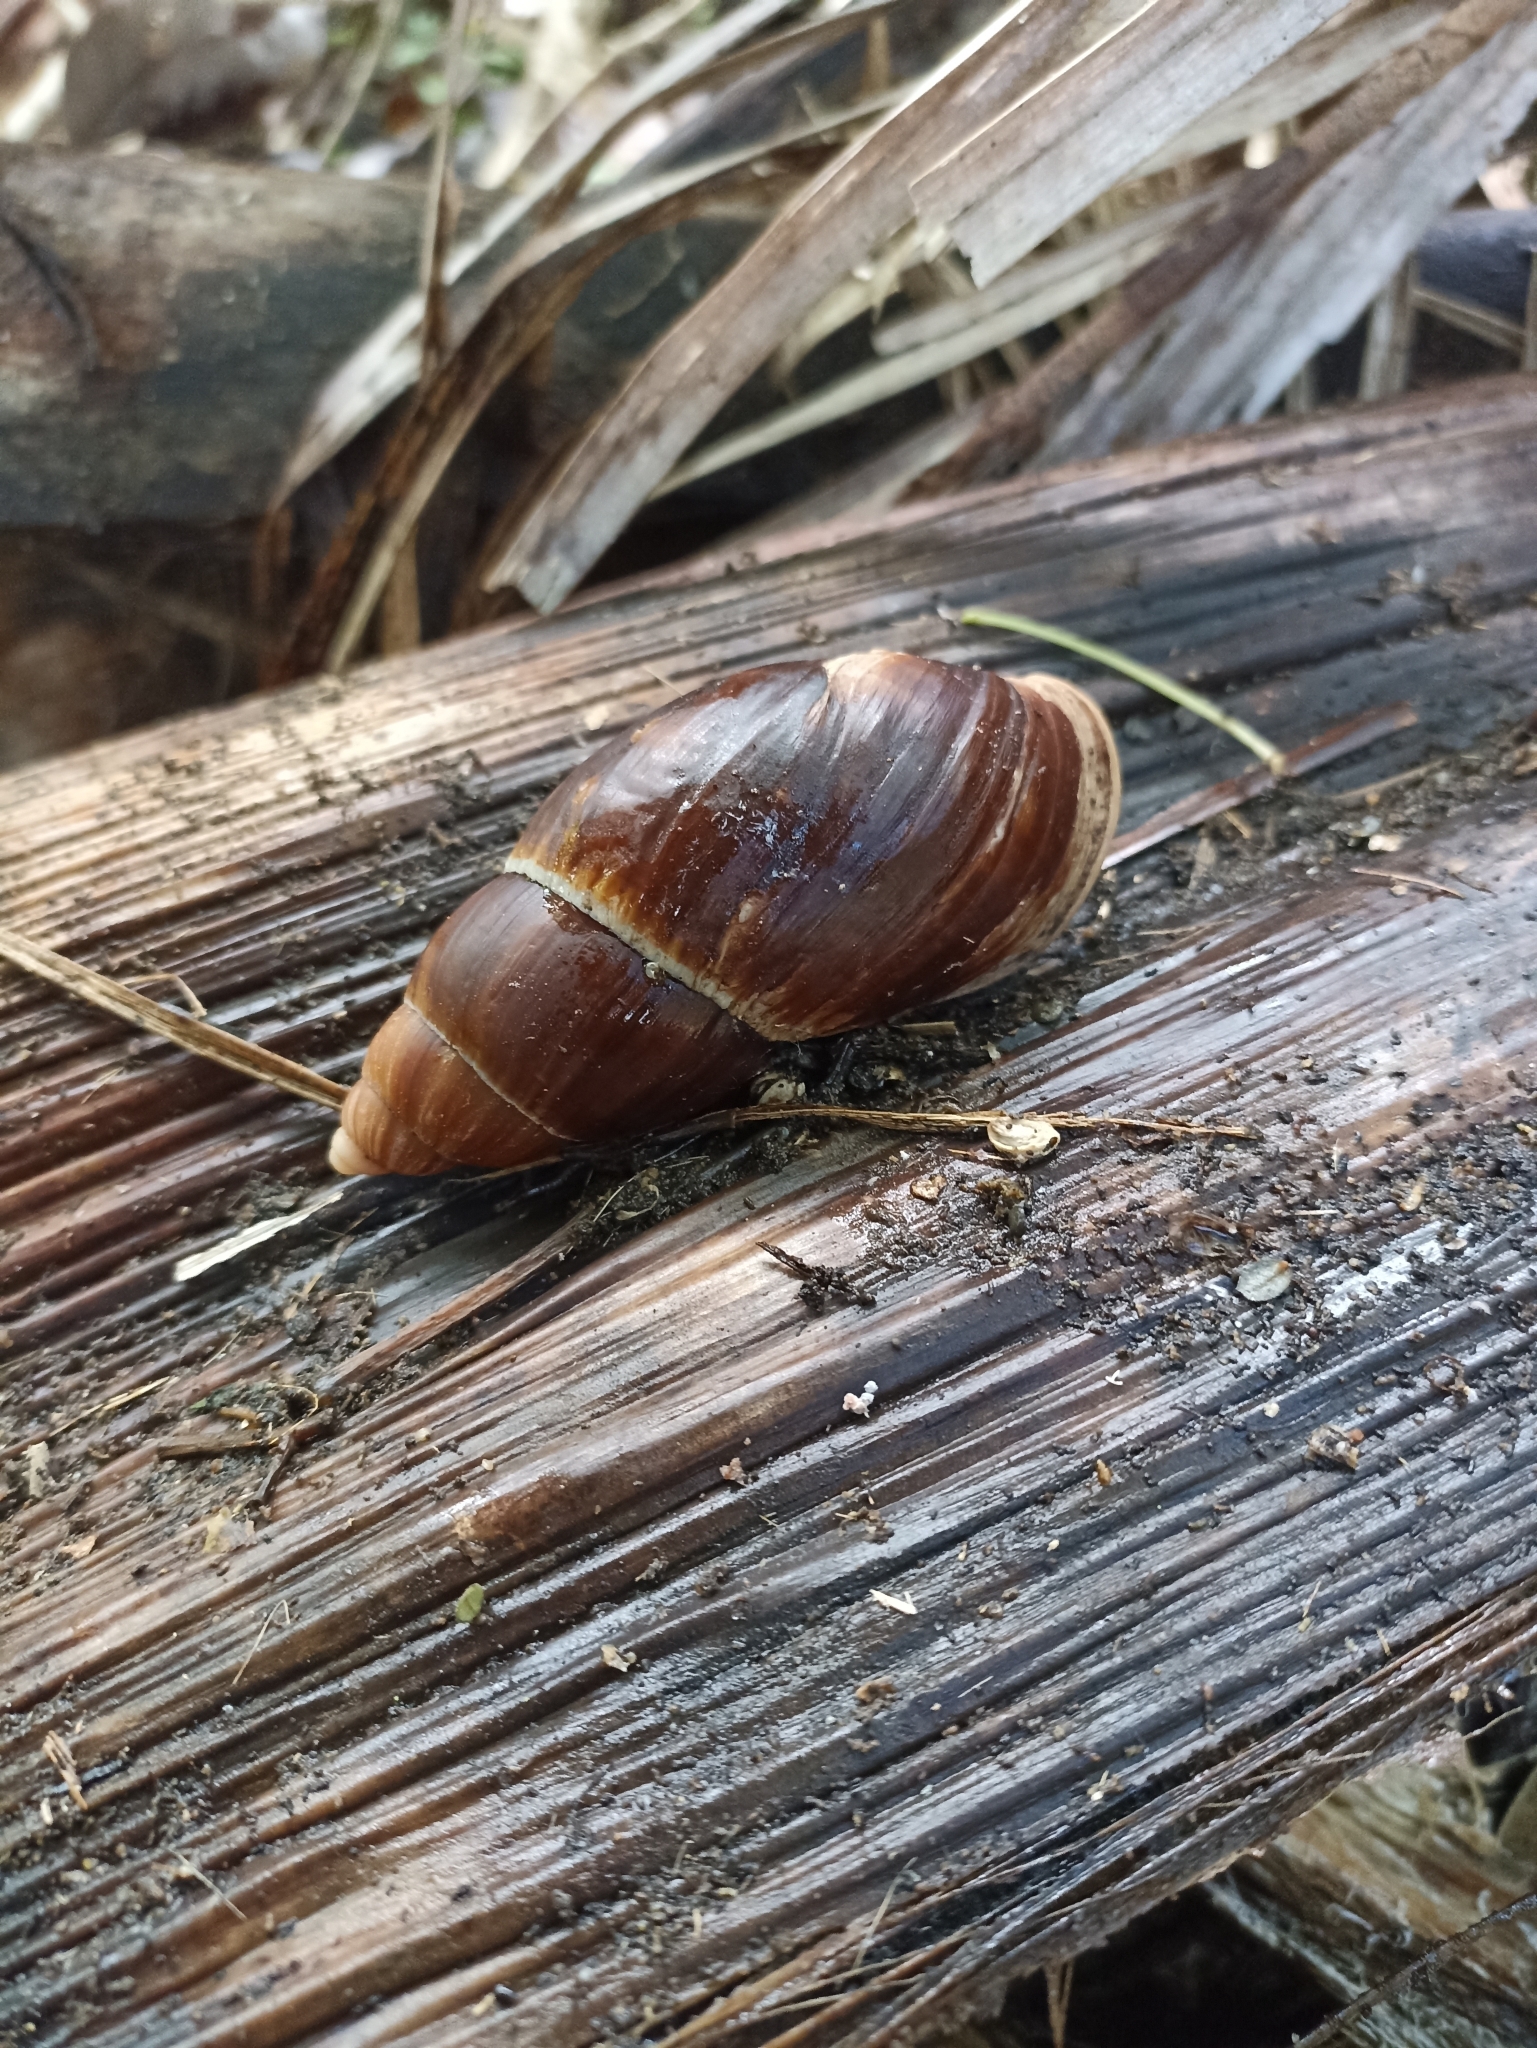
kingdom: Animalia
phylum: Mollusca
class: Gastropoda
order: Stylommatophora
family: Bothriembryontidae
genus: Maoristylus
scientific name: Maoristylus hongii
